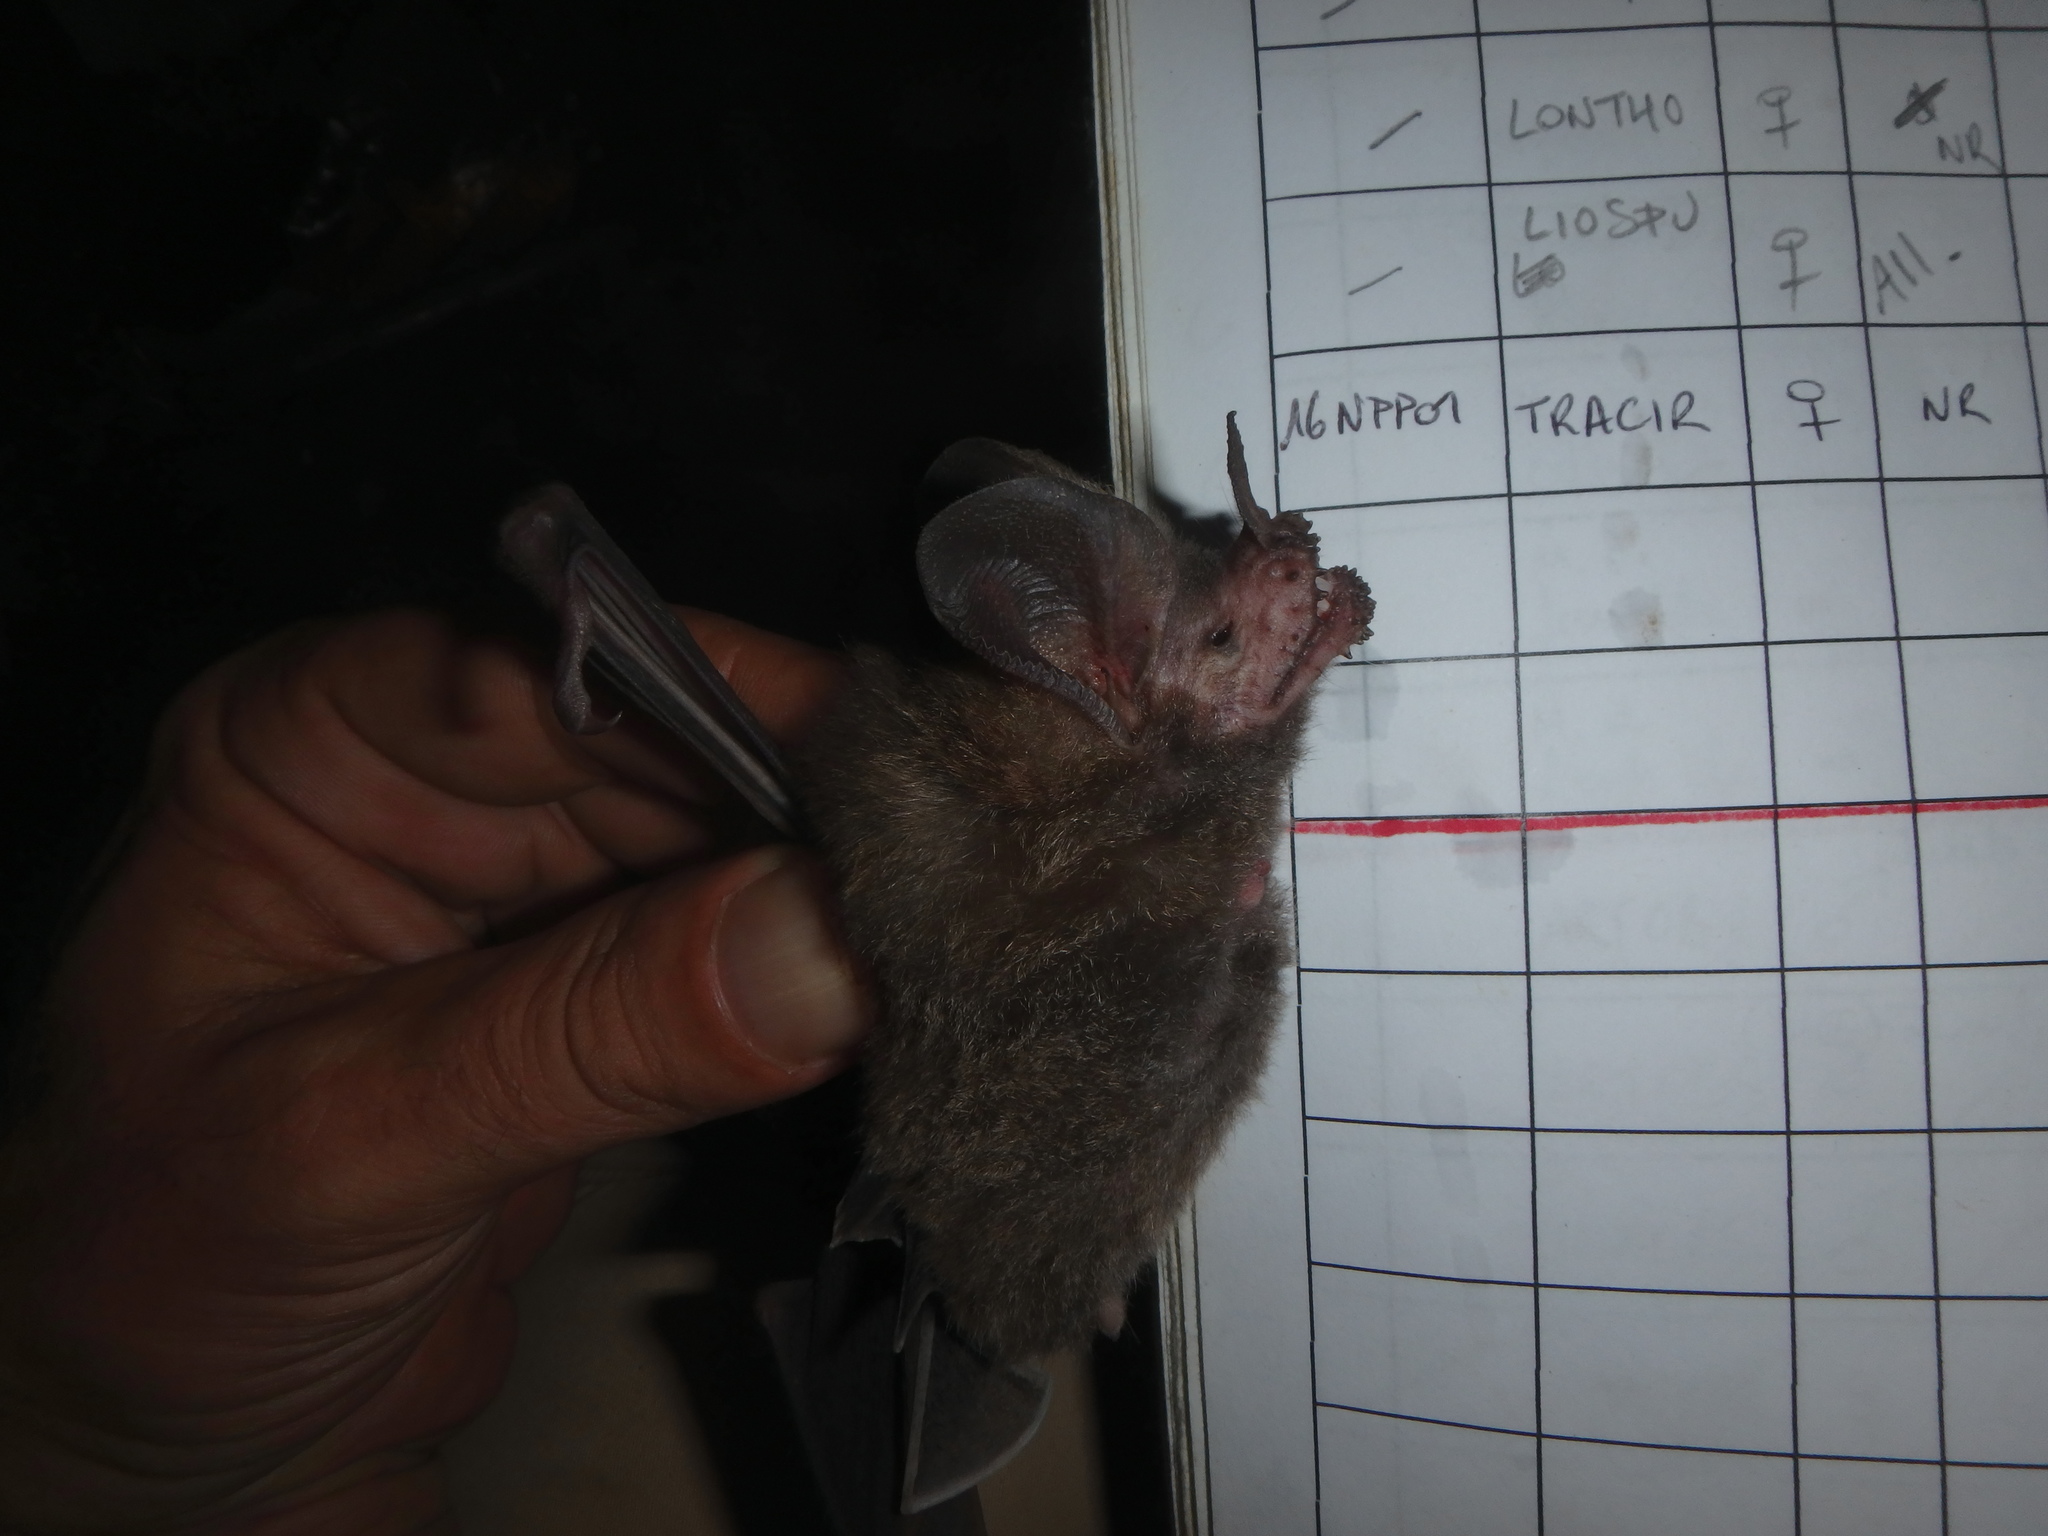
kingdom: Animalia
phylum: Chordata
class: Mammalia
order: Chiroptera
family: Phyllostomidae
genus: Trachops
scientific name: Trachops cirrhosus
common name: Fringe-lipped bat
